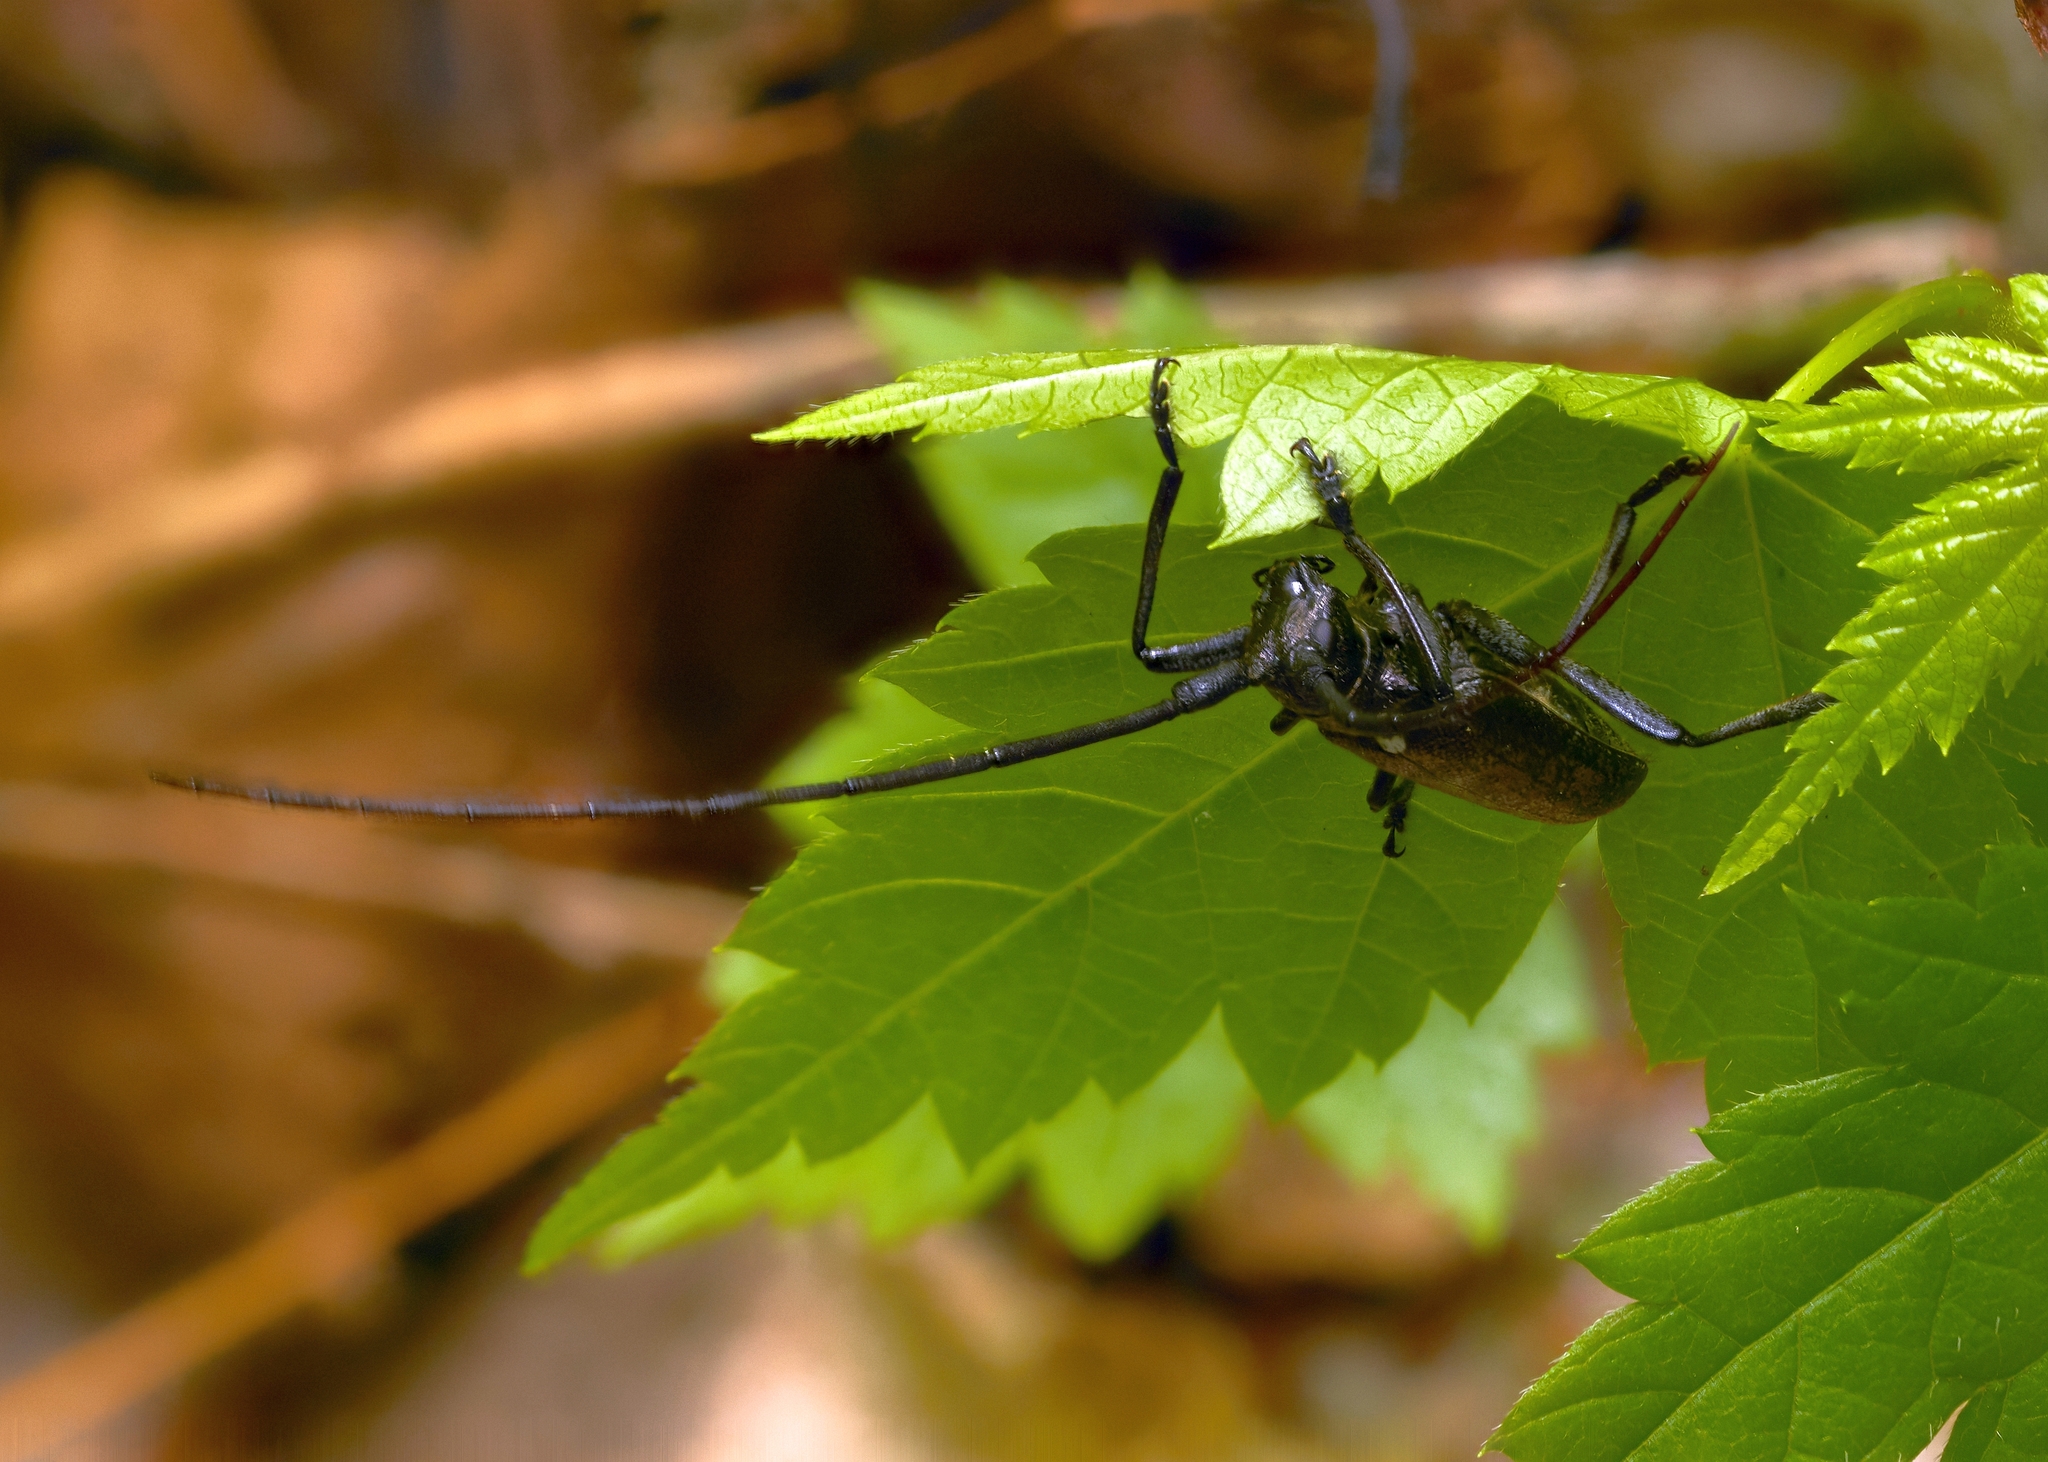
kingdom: Animalia
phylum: Arthropoda
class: Insecta
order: Coleoptera
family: Cerambycidae
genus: Monochamus
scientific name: Monochamus scutellatus
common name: White-spotted sawyer beetle
